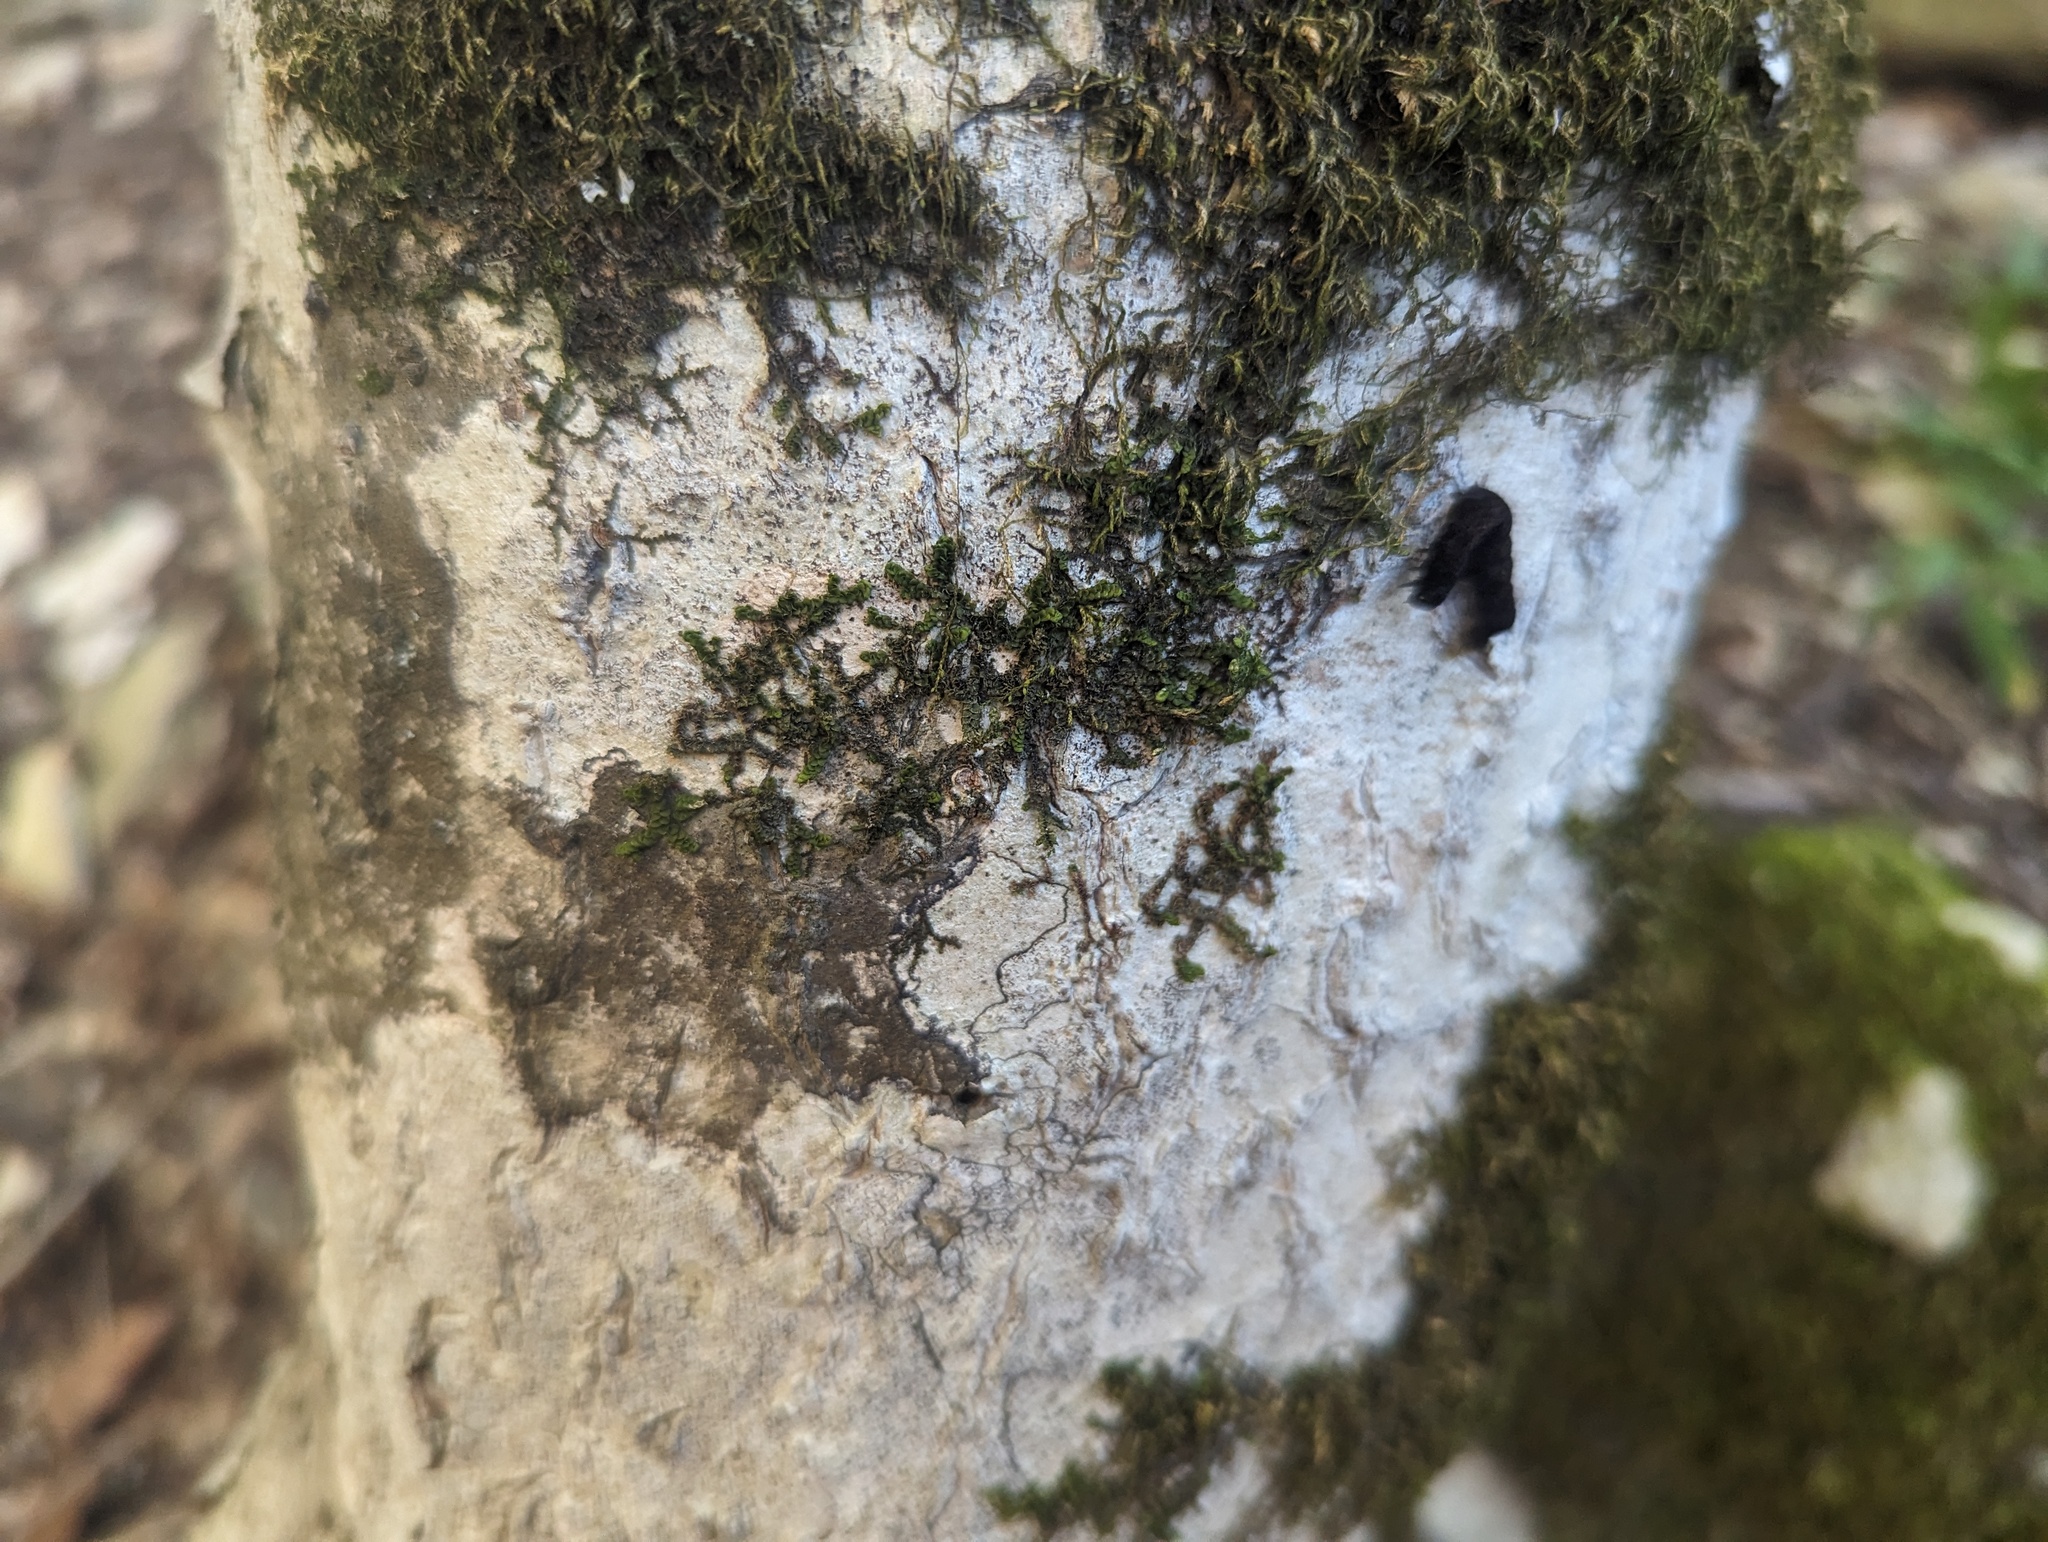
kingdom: Plantae
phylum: Marchantiophyta
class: Jungermanniopsida
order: Porellales
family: Porellaceae
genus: Porella
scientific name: Porella platyphylla
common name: Wall scalewort
